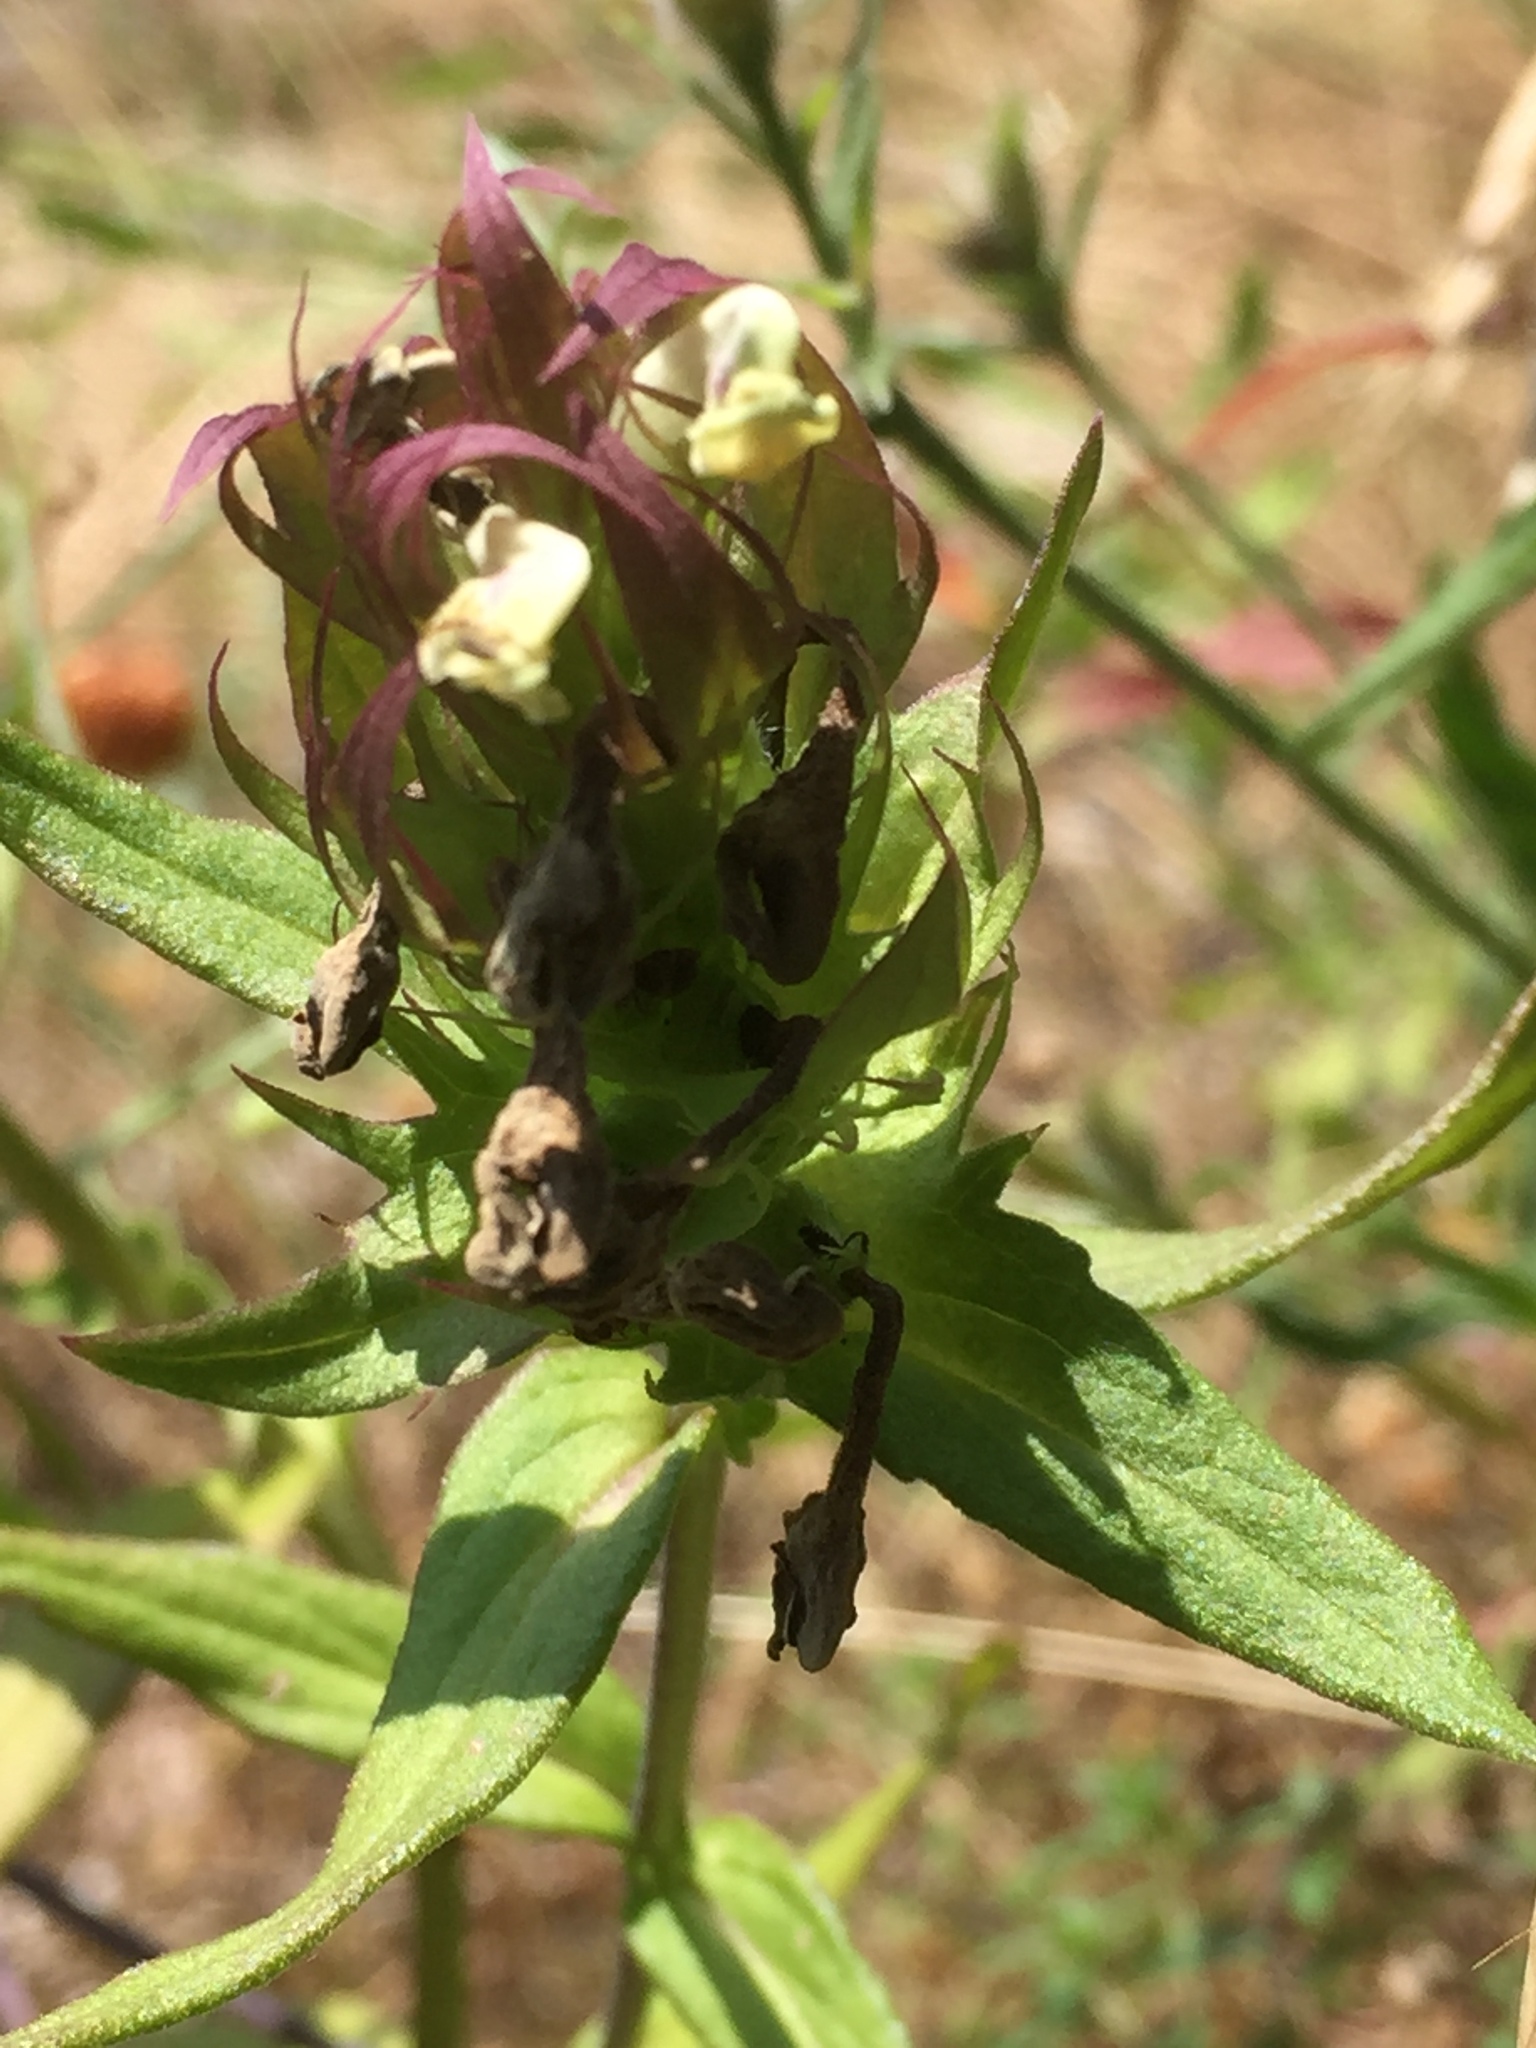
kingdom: Plantae
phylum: Tracheophyta
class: Magnoliopsida
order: Lamiales
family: Orobanchaceae
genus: Melampyrum
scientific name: Melampyrum arvense
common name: Field cow-wheat
